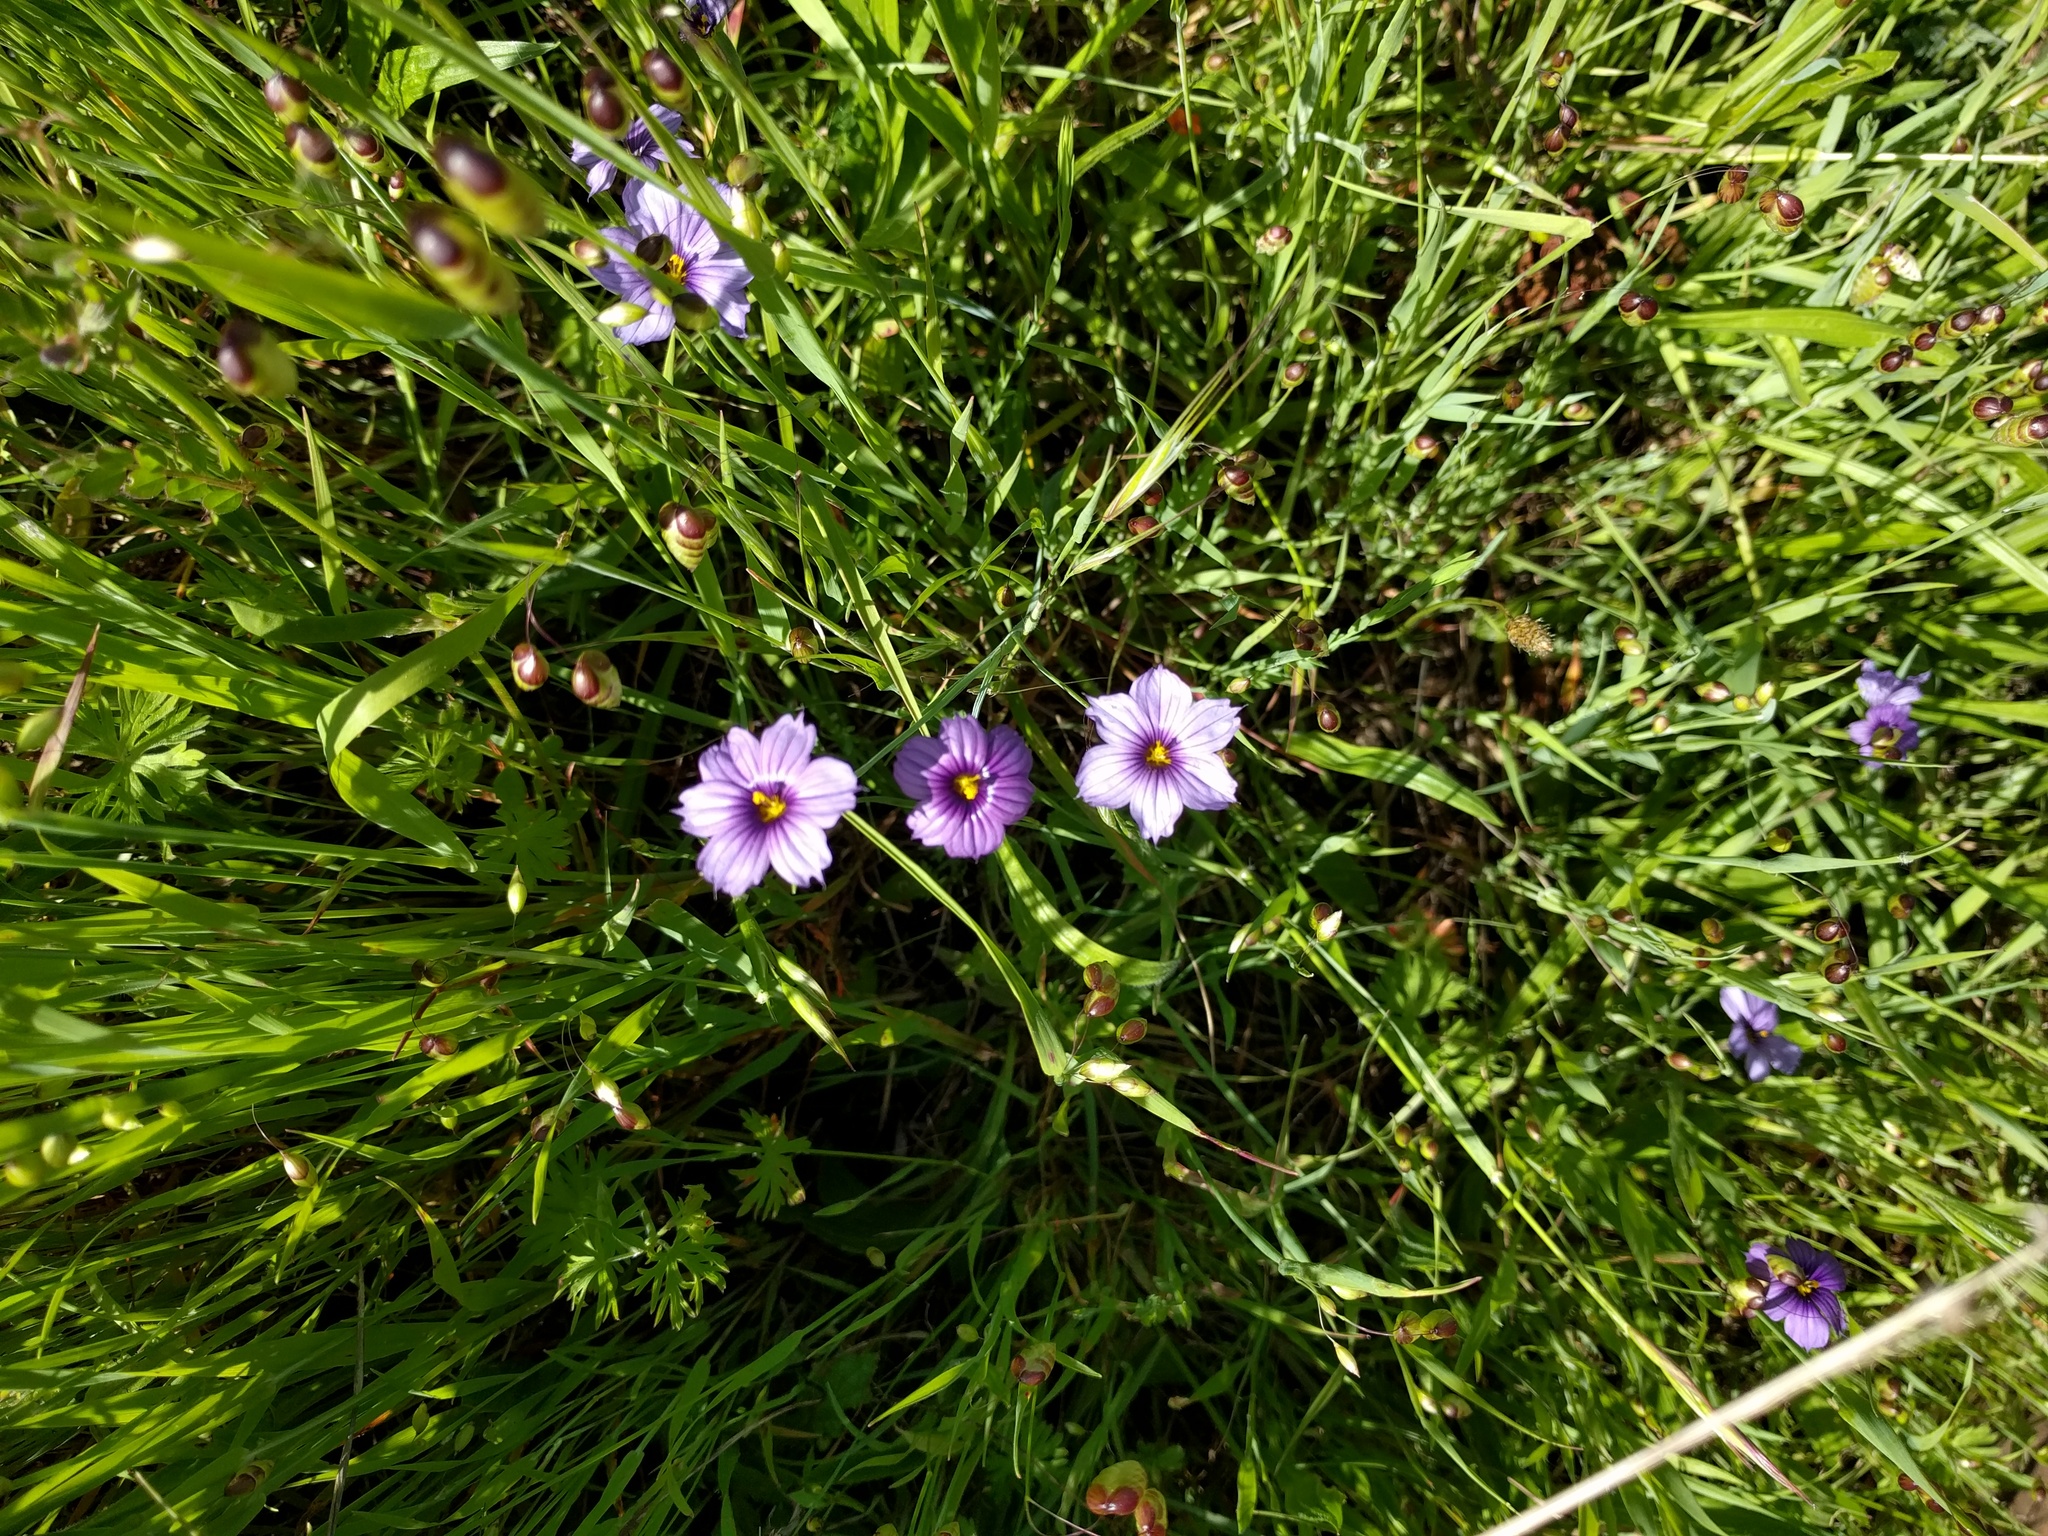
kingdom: Plantae
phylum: Tracheophyta
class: Liliopsida
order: Asparagales
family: Iridaceae
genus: Sisyrinchium
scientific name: Sisyrinchium bellum
